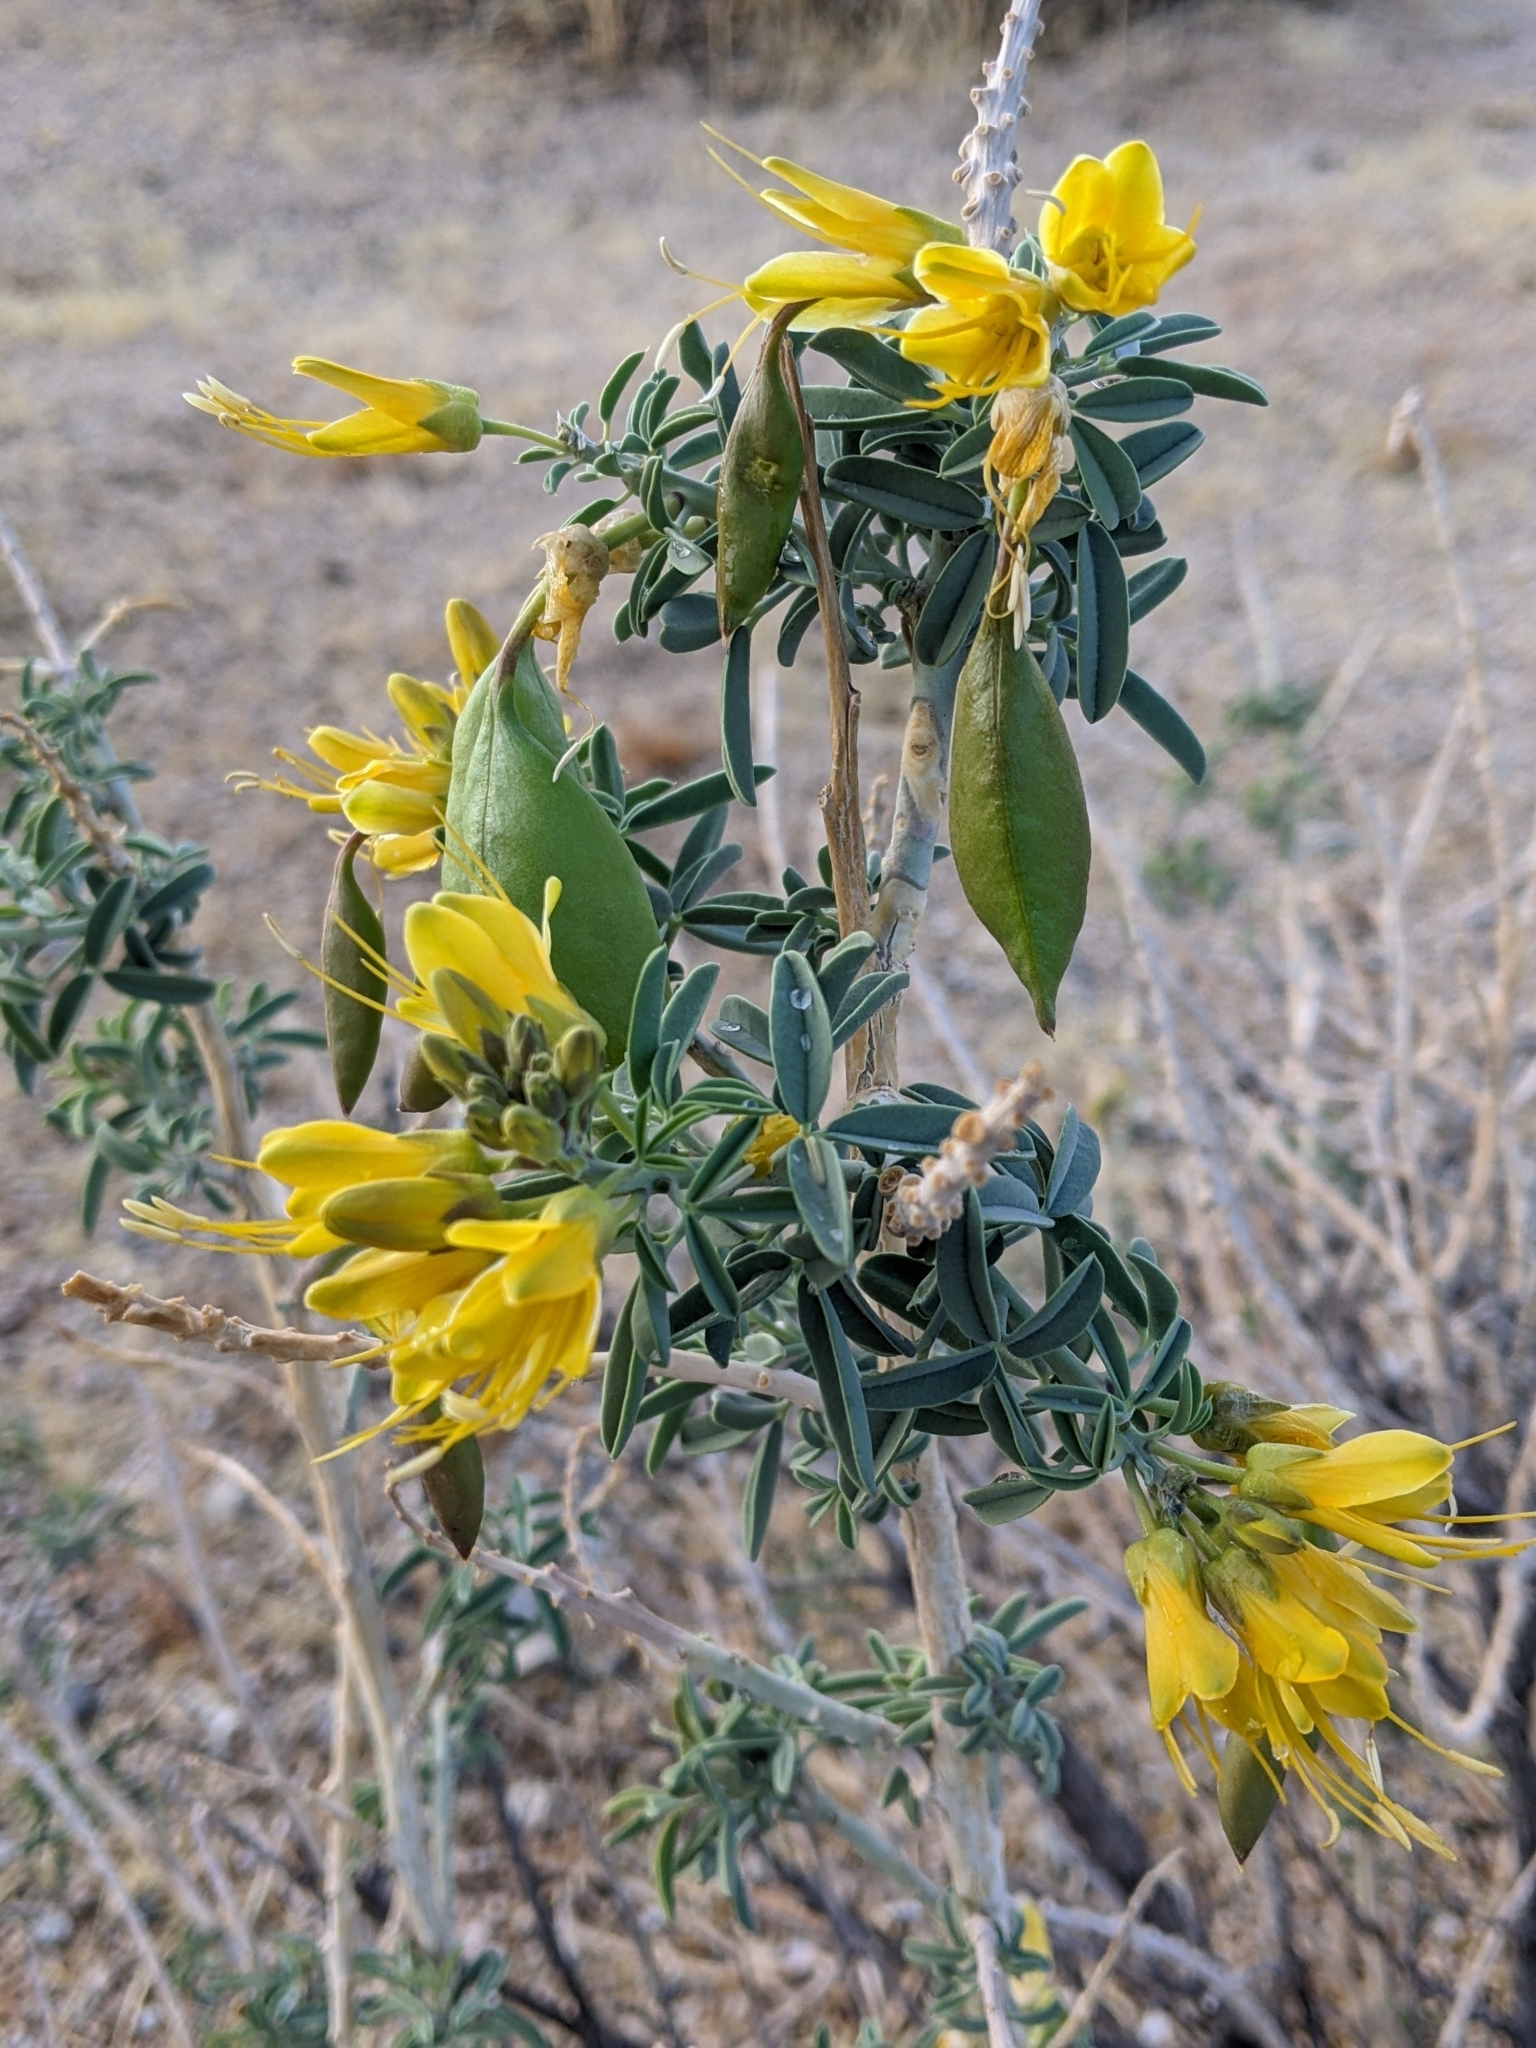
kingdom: Plantae
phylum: Tracheophyta
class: Magnoliopsida
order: Brassicales
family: Cleomaceae
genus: Cleomella
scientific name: Cleomella arborea
